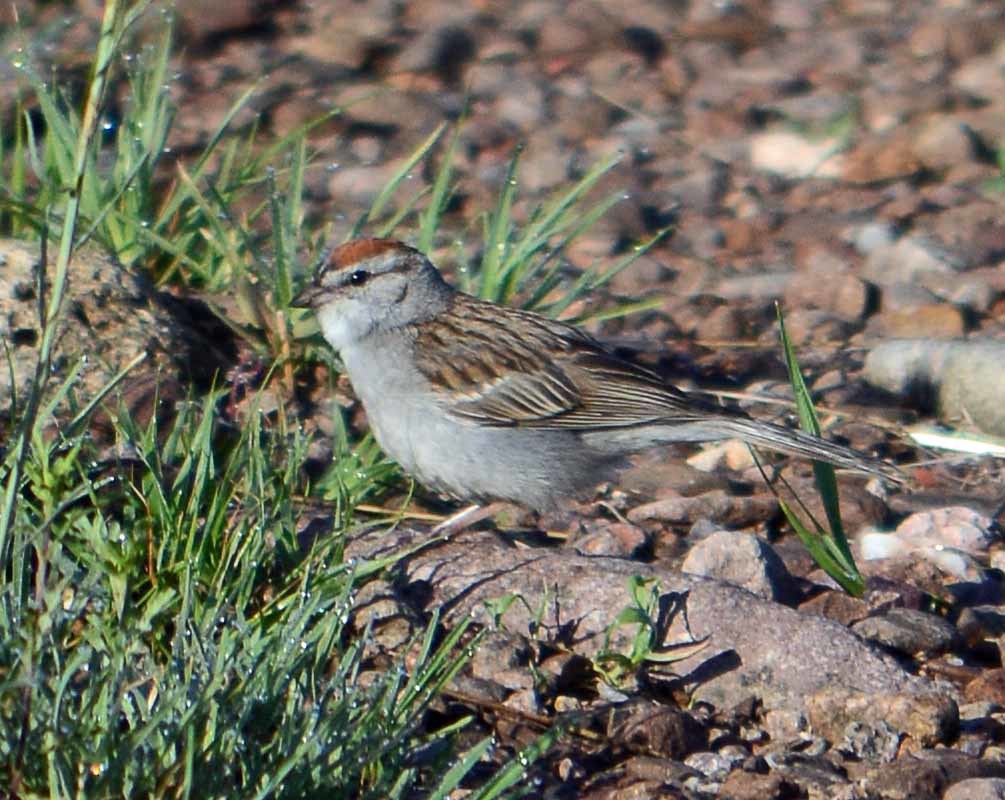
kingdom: Animalia
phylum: Chordata
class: Aves
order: Passeriformes
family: Passerellidae
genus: Spizella
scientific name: Spizella passerina
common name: Chipping sparrow
